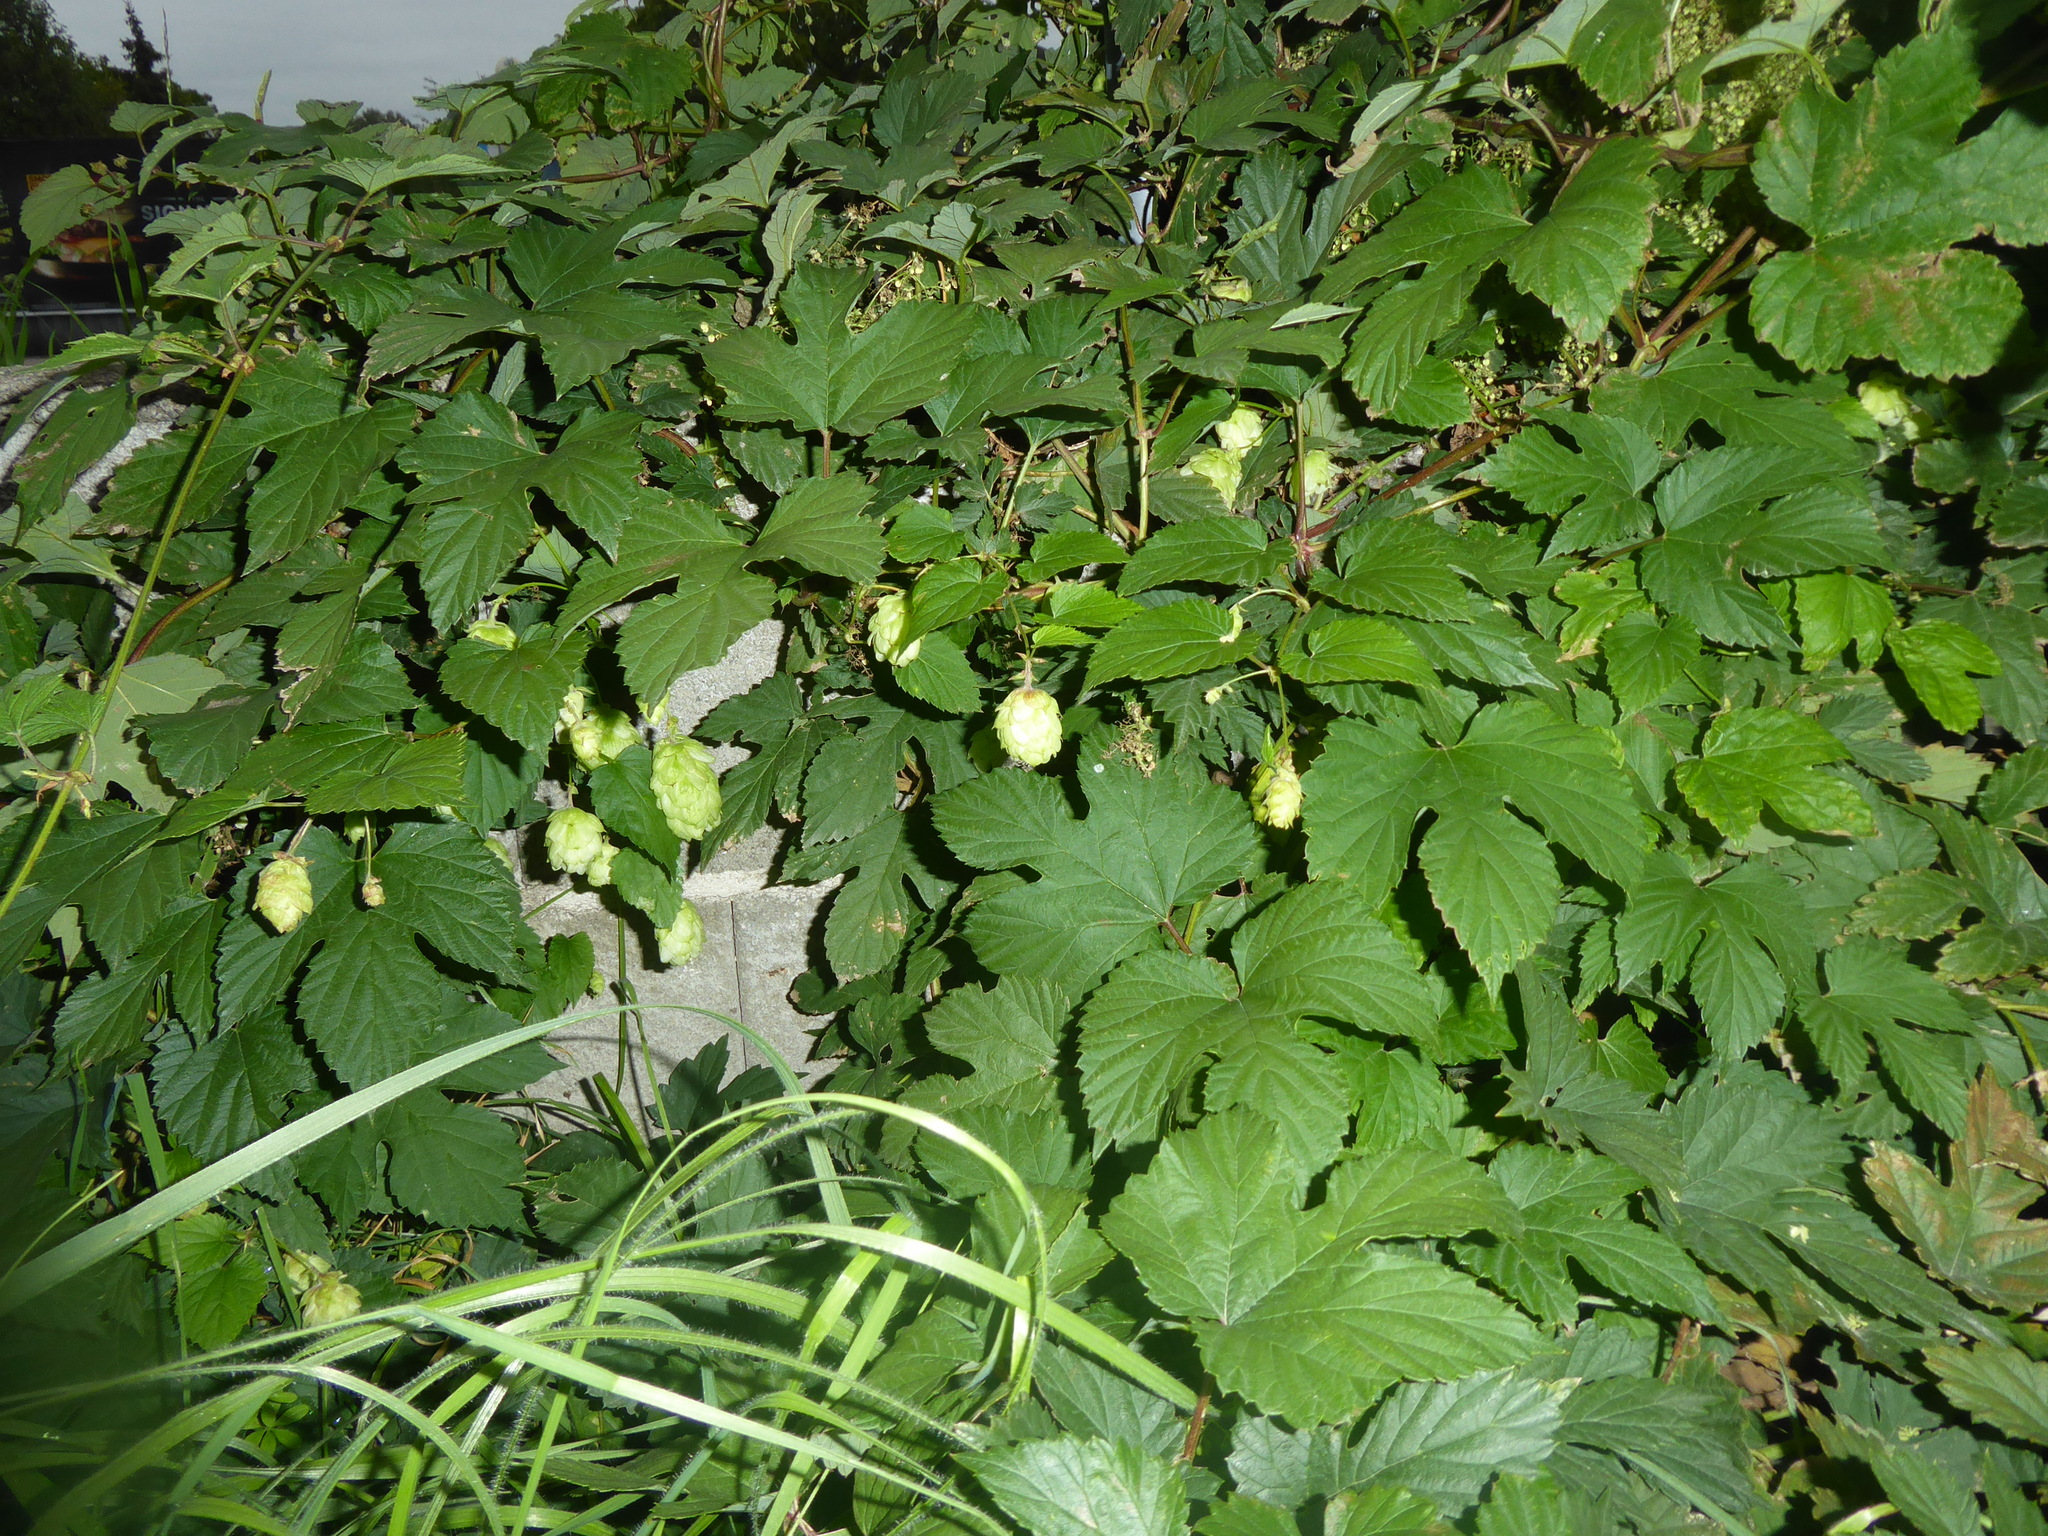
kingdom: Plantae
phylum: Tracheophyta
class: Magnoliopsida
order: Rosales
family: Cannabaceae
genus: Humulus
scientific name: Humulus lupulus
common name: Hop
